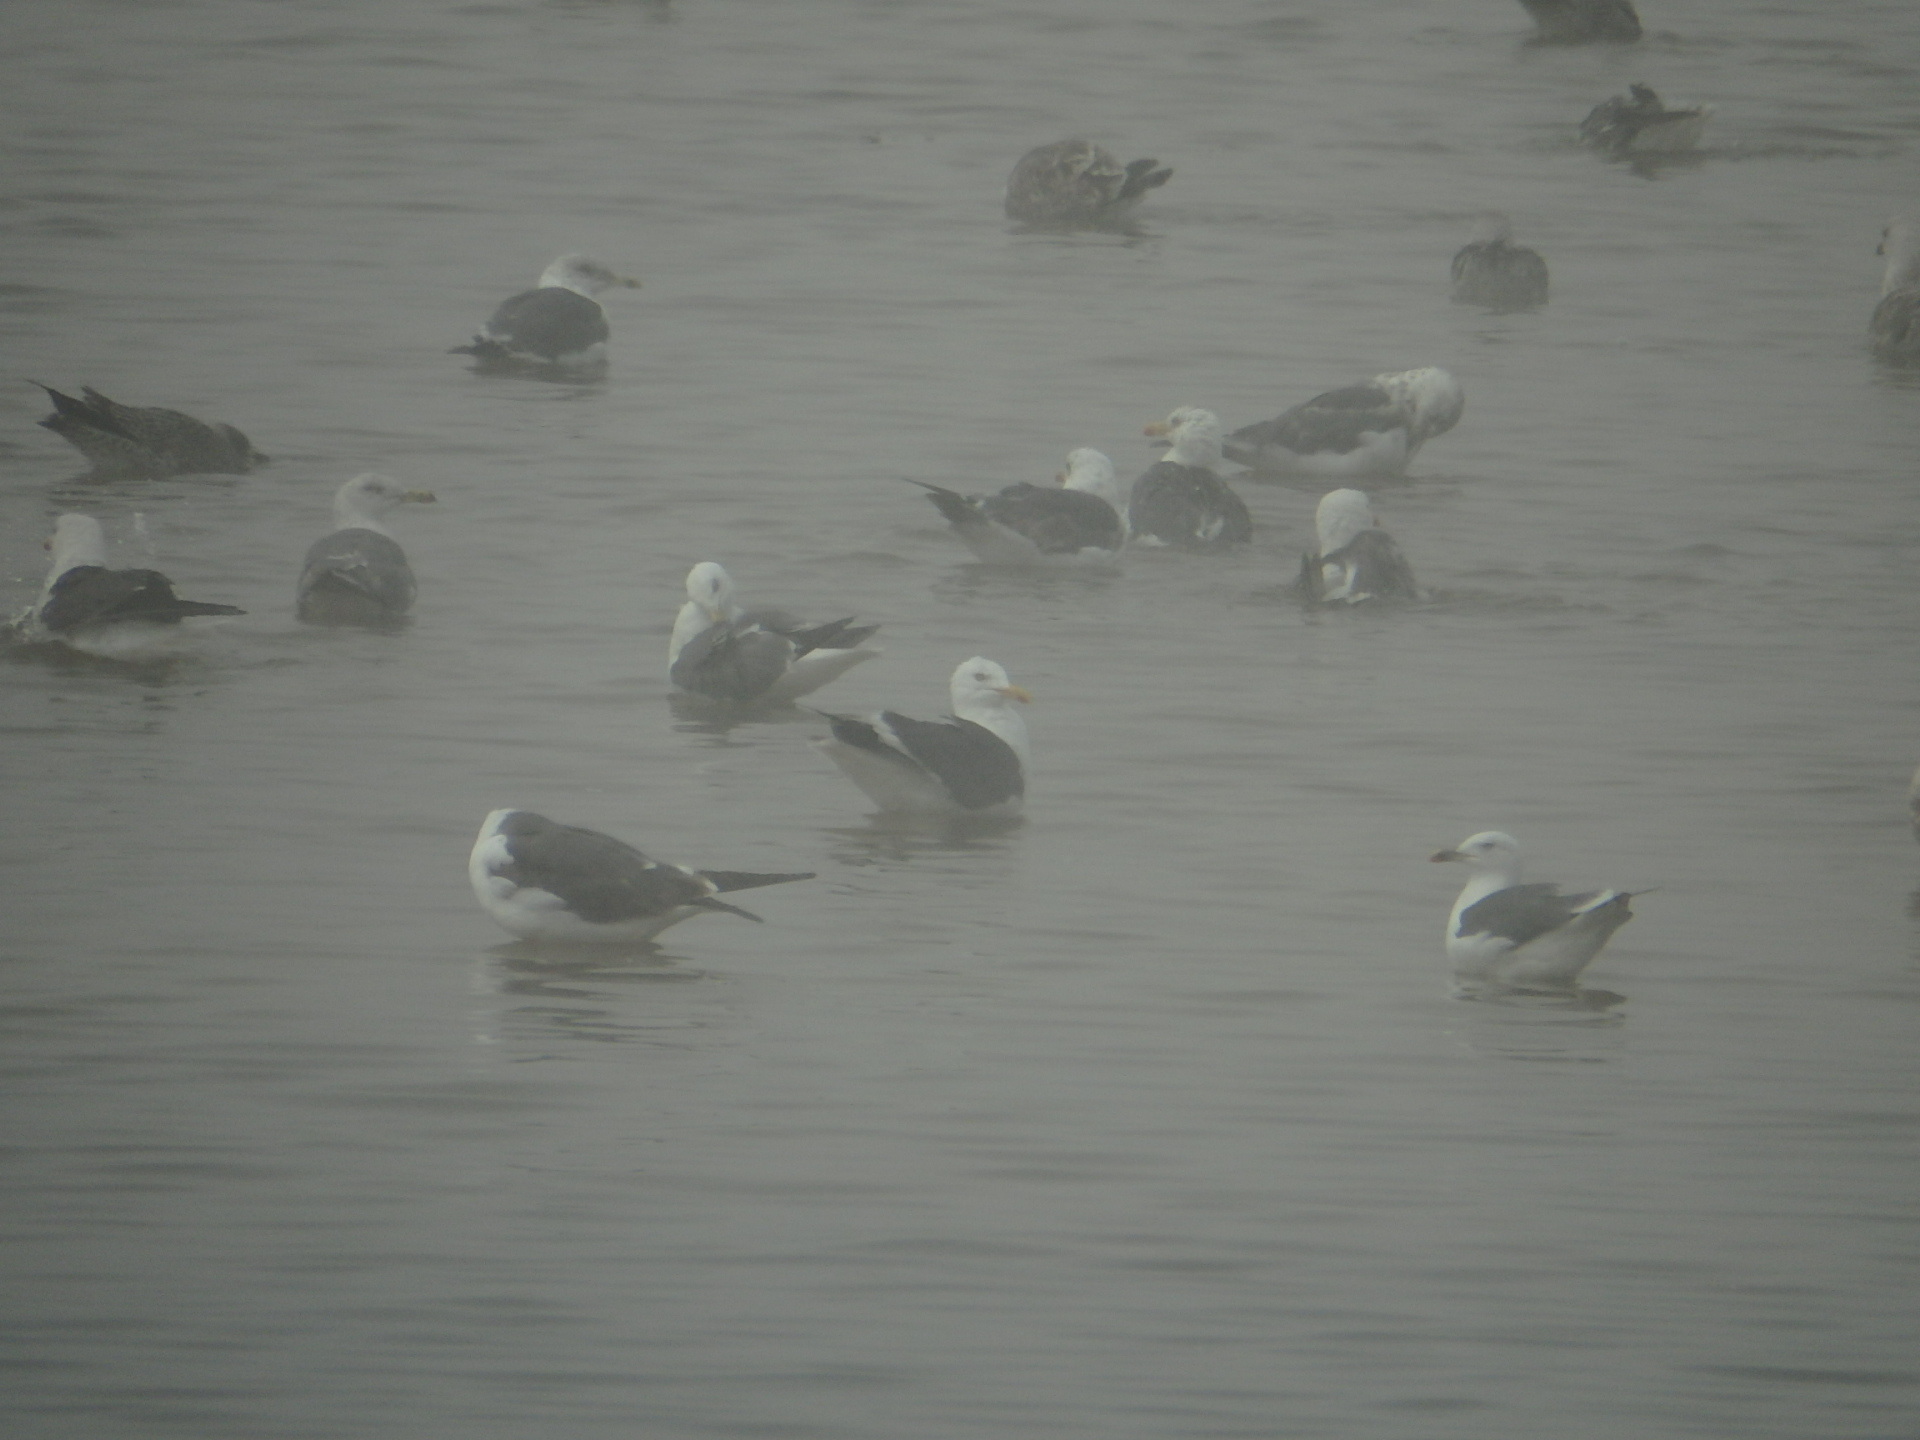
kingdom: Animalia
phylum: Chordata
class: Aves
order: Charadriiformes
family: Laridae
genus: Larus
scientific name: Larus fuscus
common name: Lesser black-backed gull
